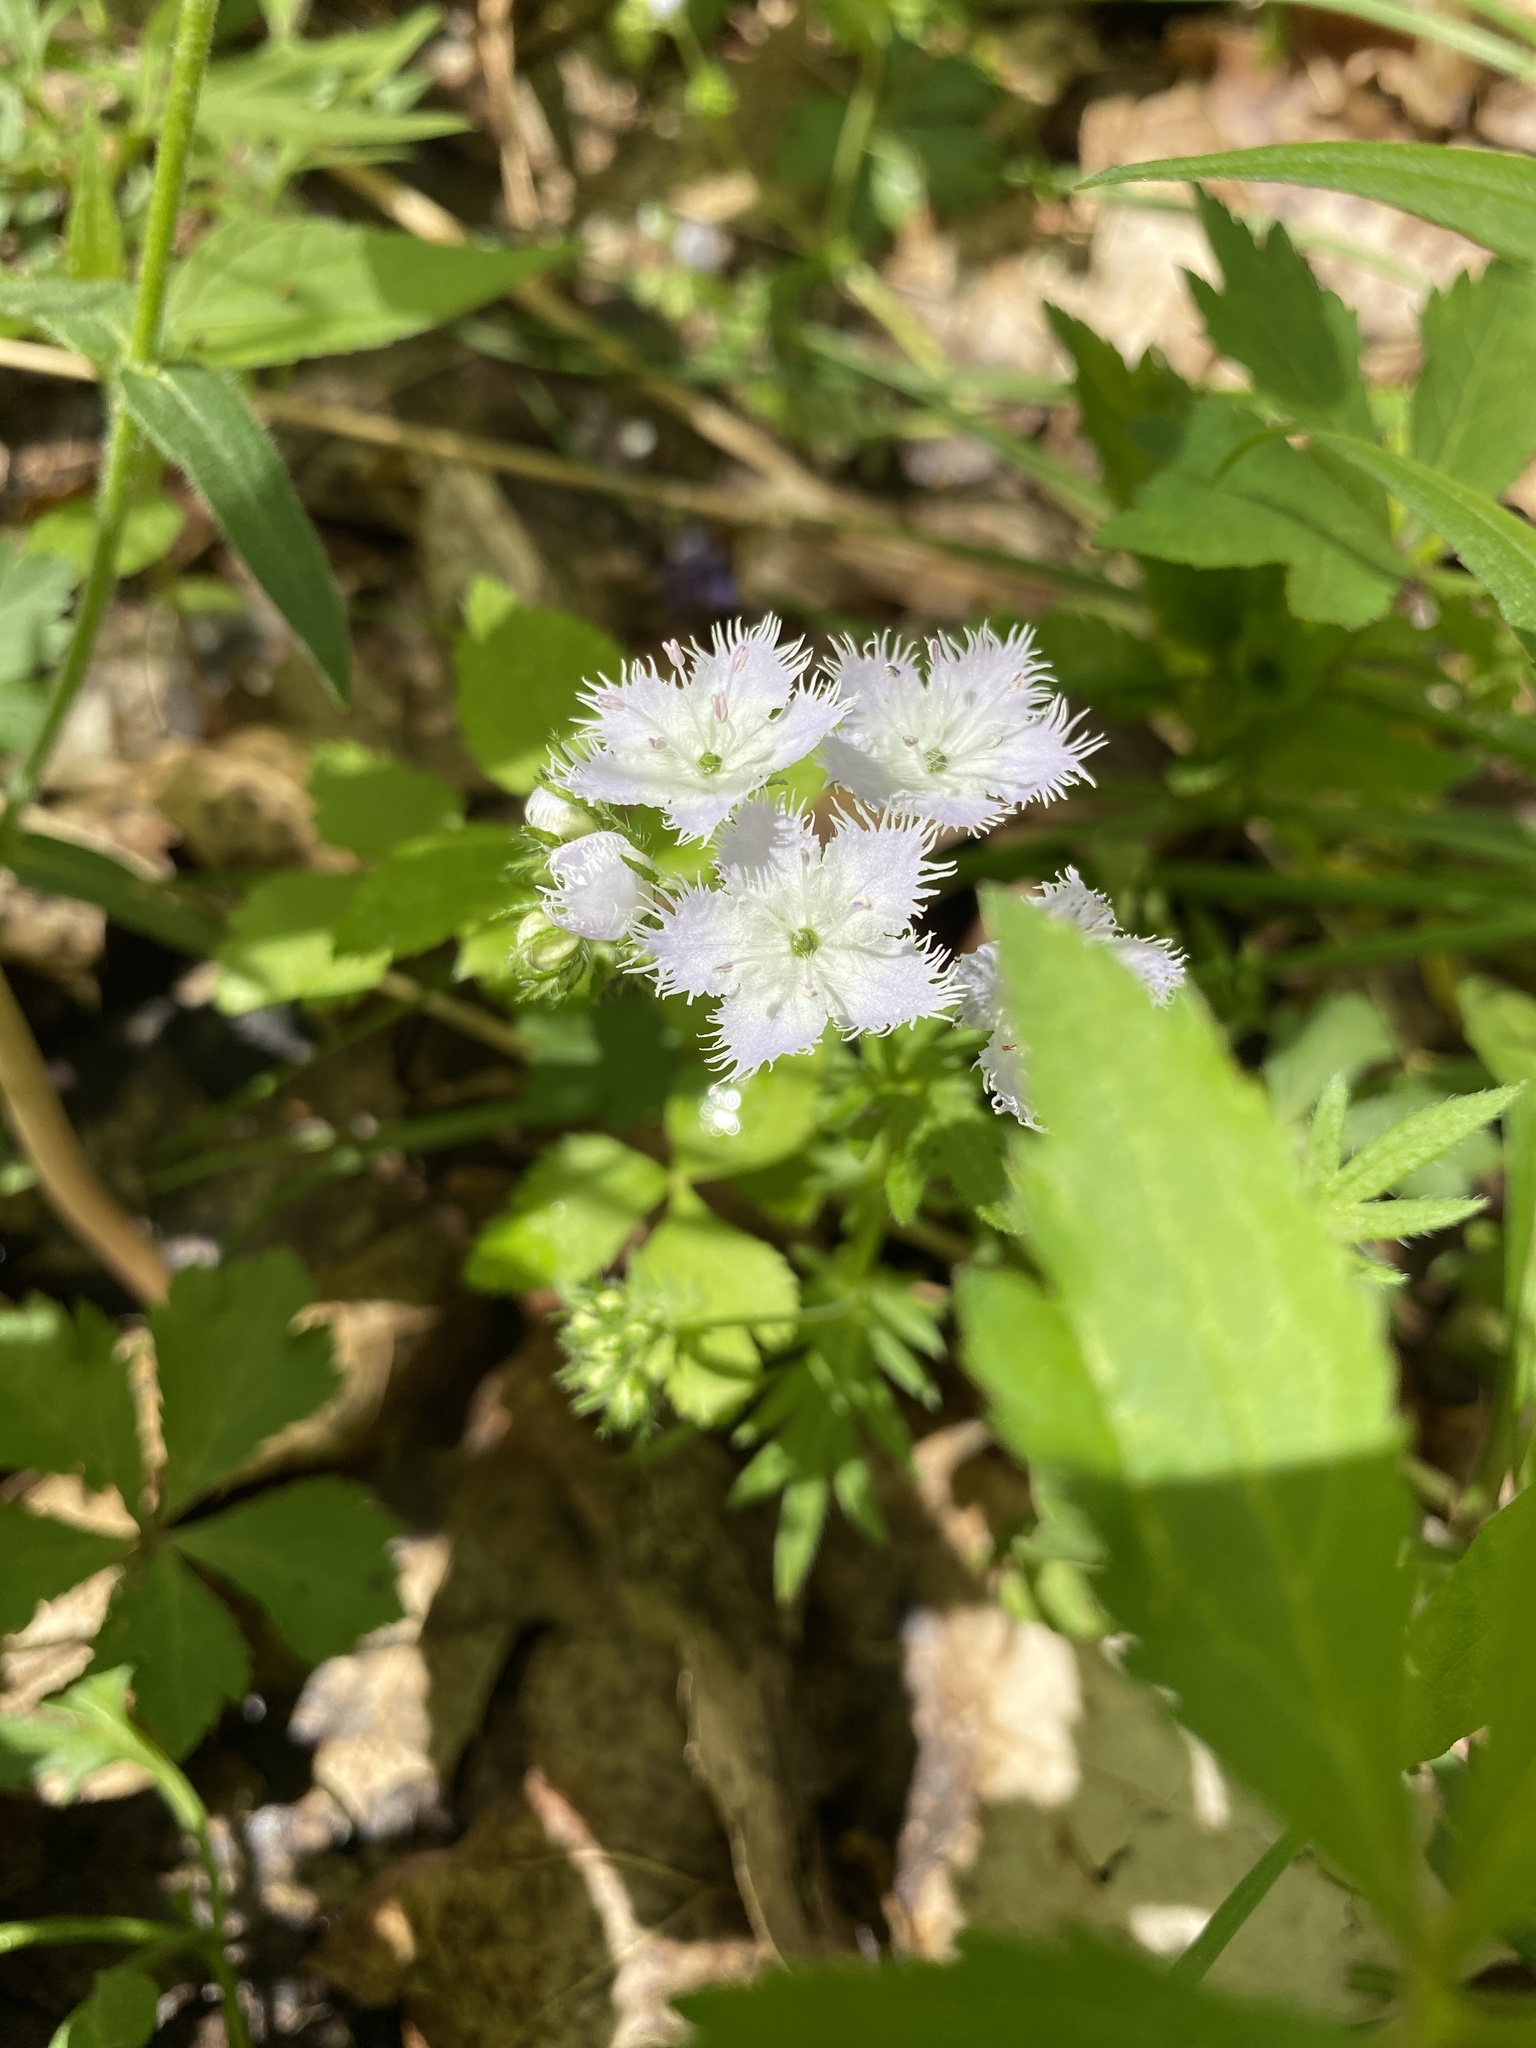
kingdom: Plantae
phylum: Tracheophyta
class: Magnoliopsida
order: Boraginales
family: Hydrophyllaceae
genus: Phacelia
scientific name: Phacelia purshii
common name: Miami-mist
